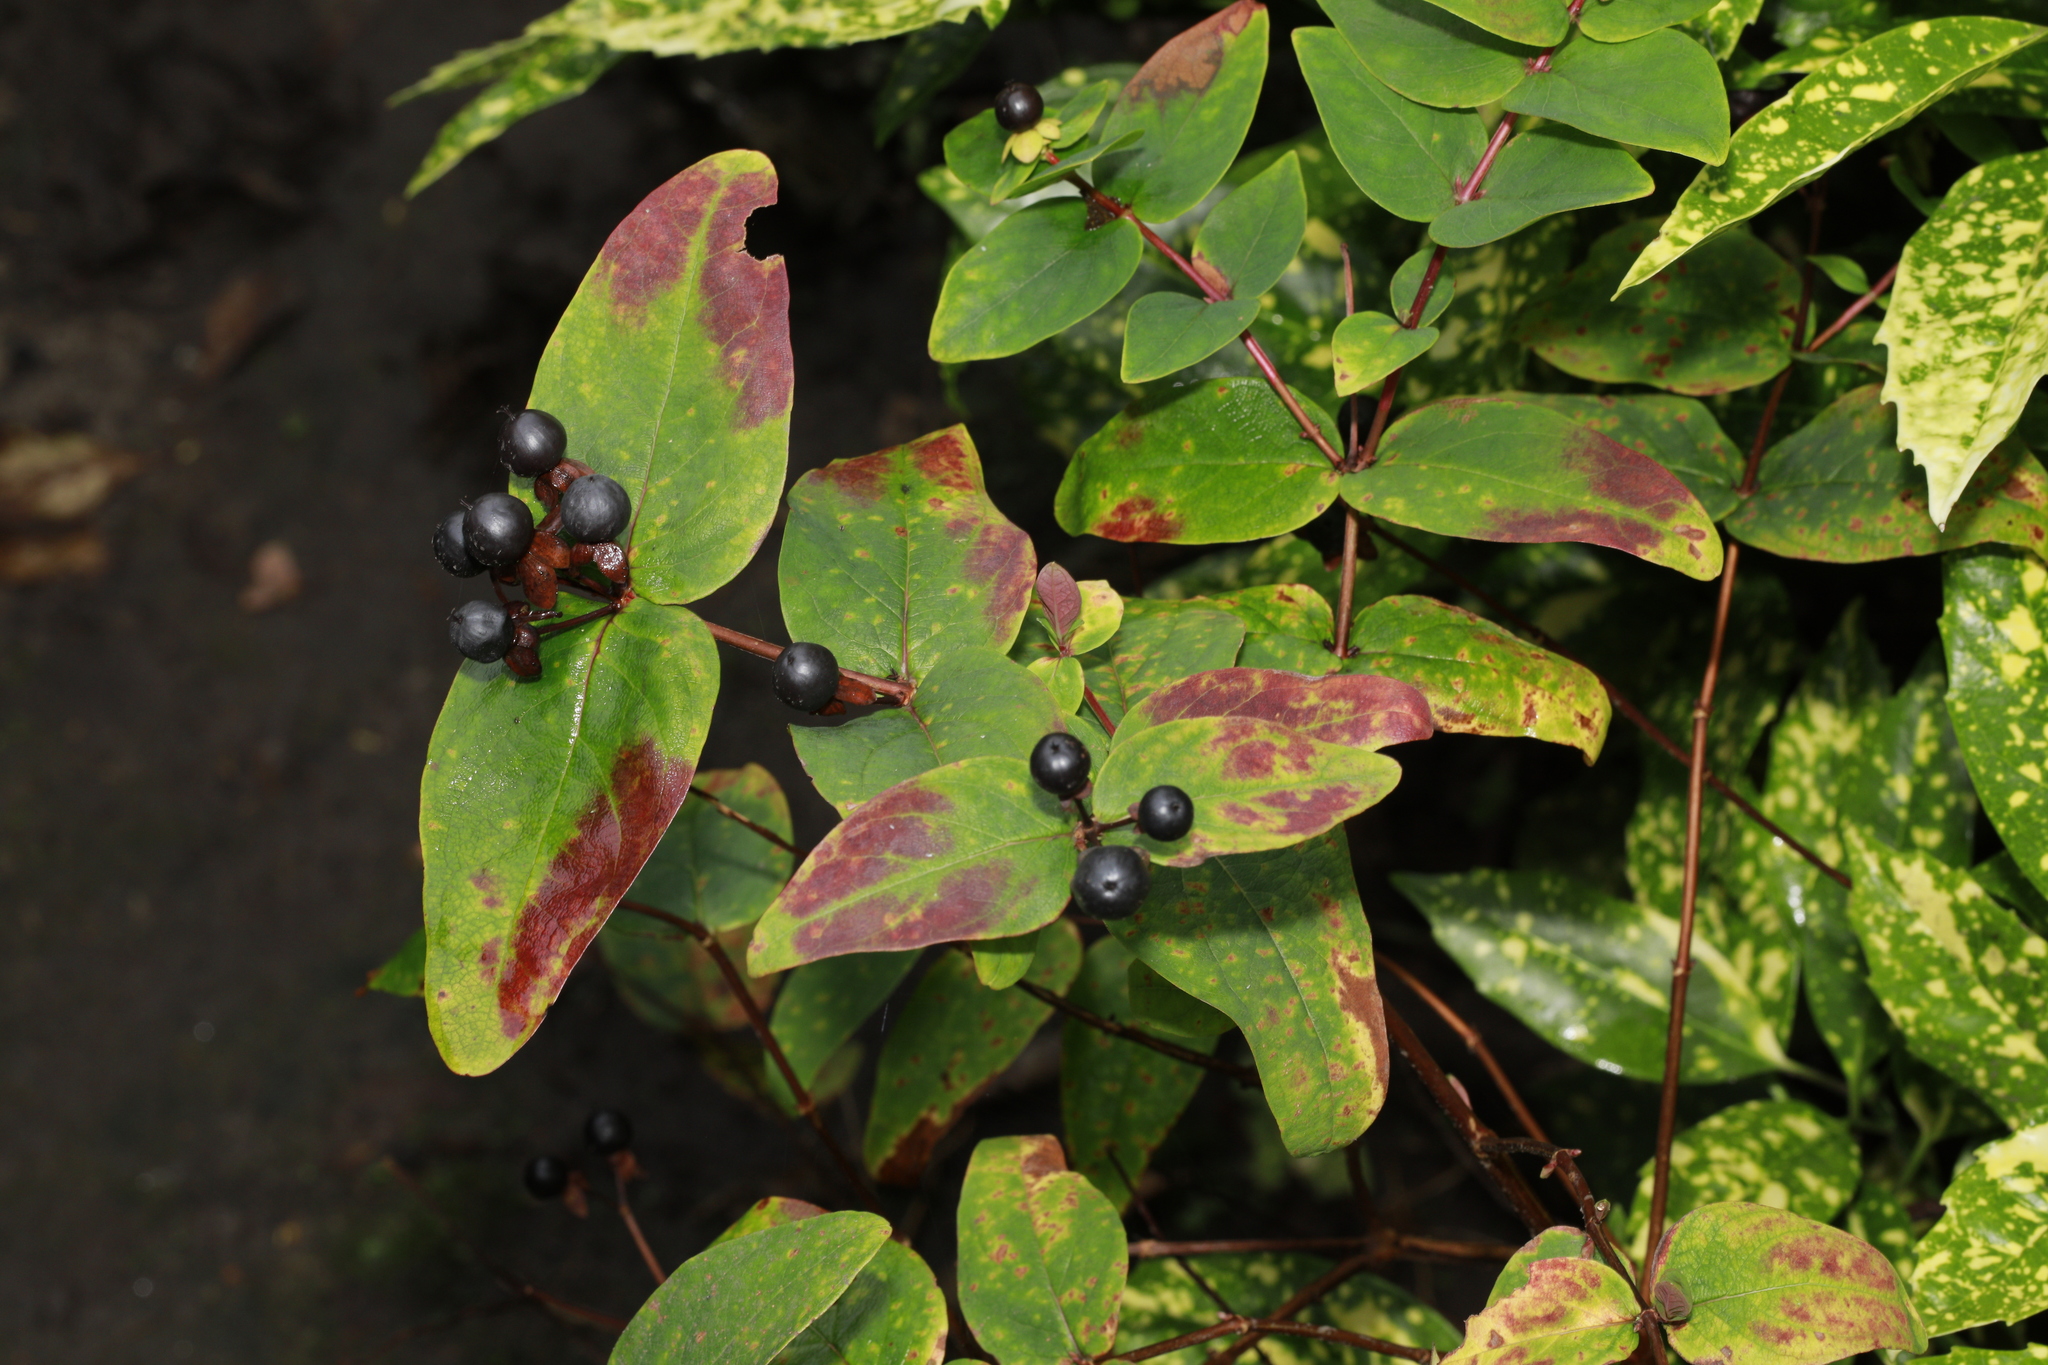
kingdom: Plantae
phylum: Tracheophyta
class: Magnoliopsida
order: Malpighiales
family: Hypericaceae
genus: Hypericum
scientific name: Hypericum androsaemum
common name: Sweet-amber
